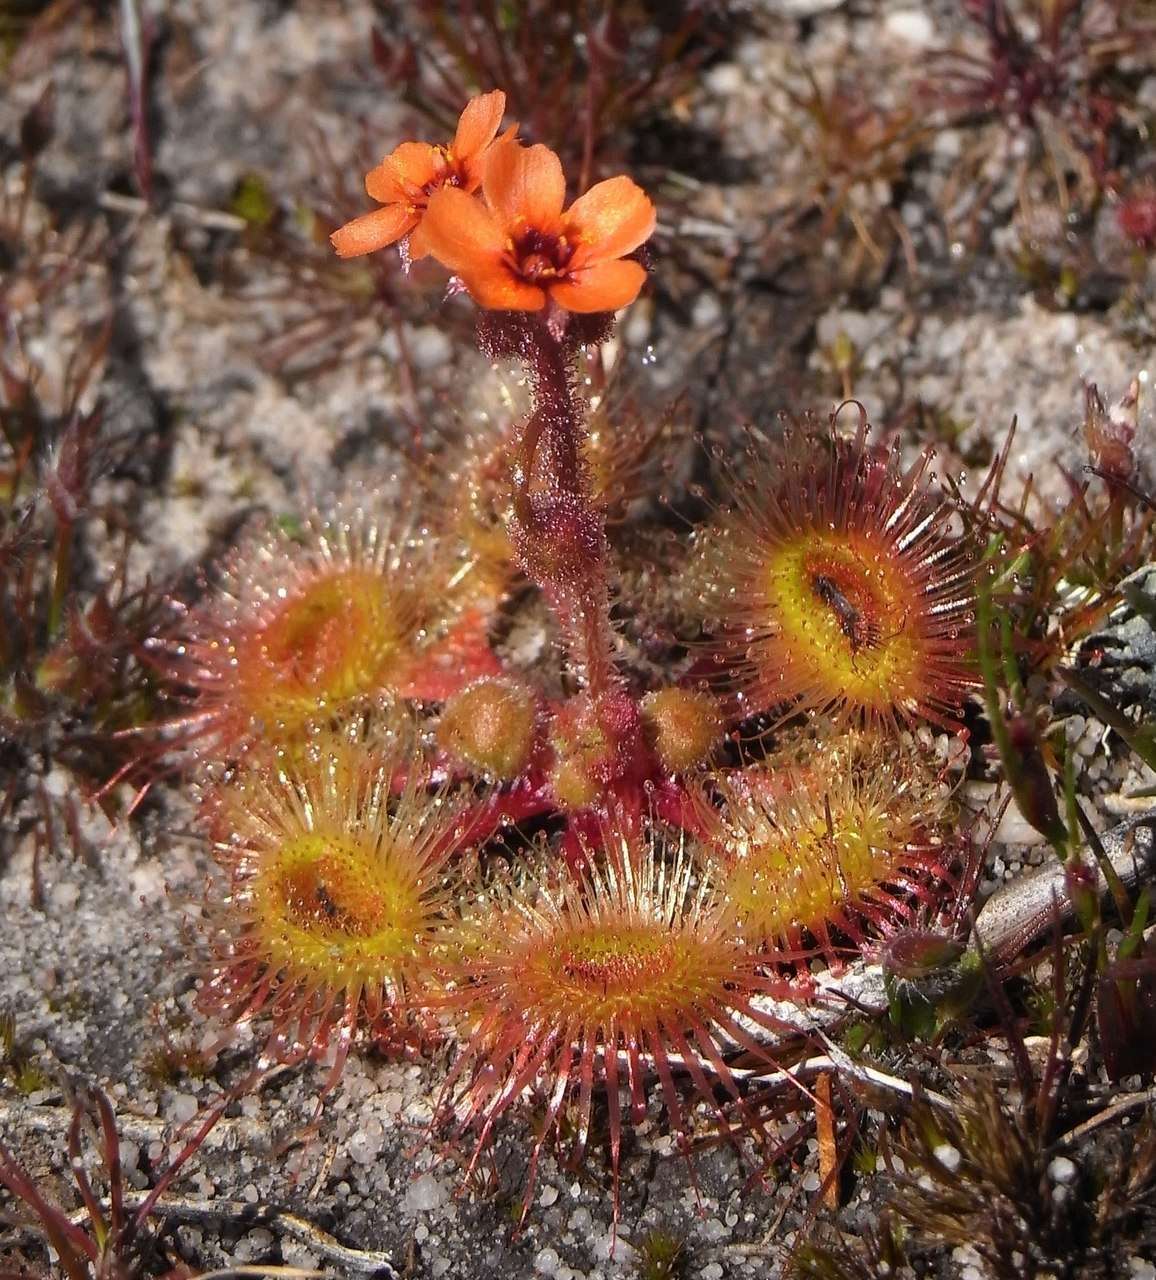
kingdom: Plantae
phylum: Tracheophyta
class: Magnoliopsida
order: Caryophyllales
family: Droseraceae
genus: Drosera
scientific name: Drosera glanduligera
